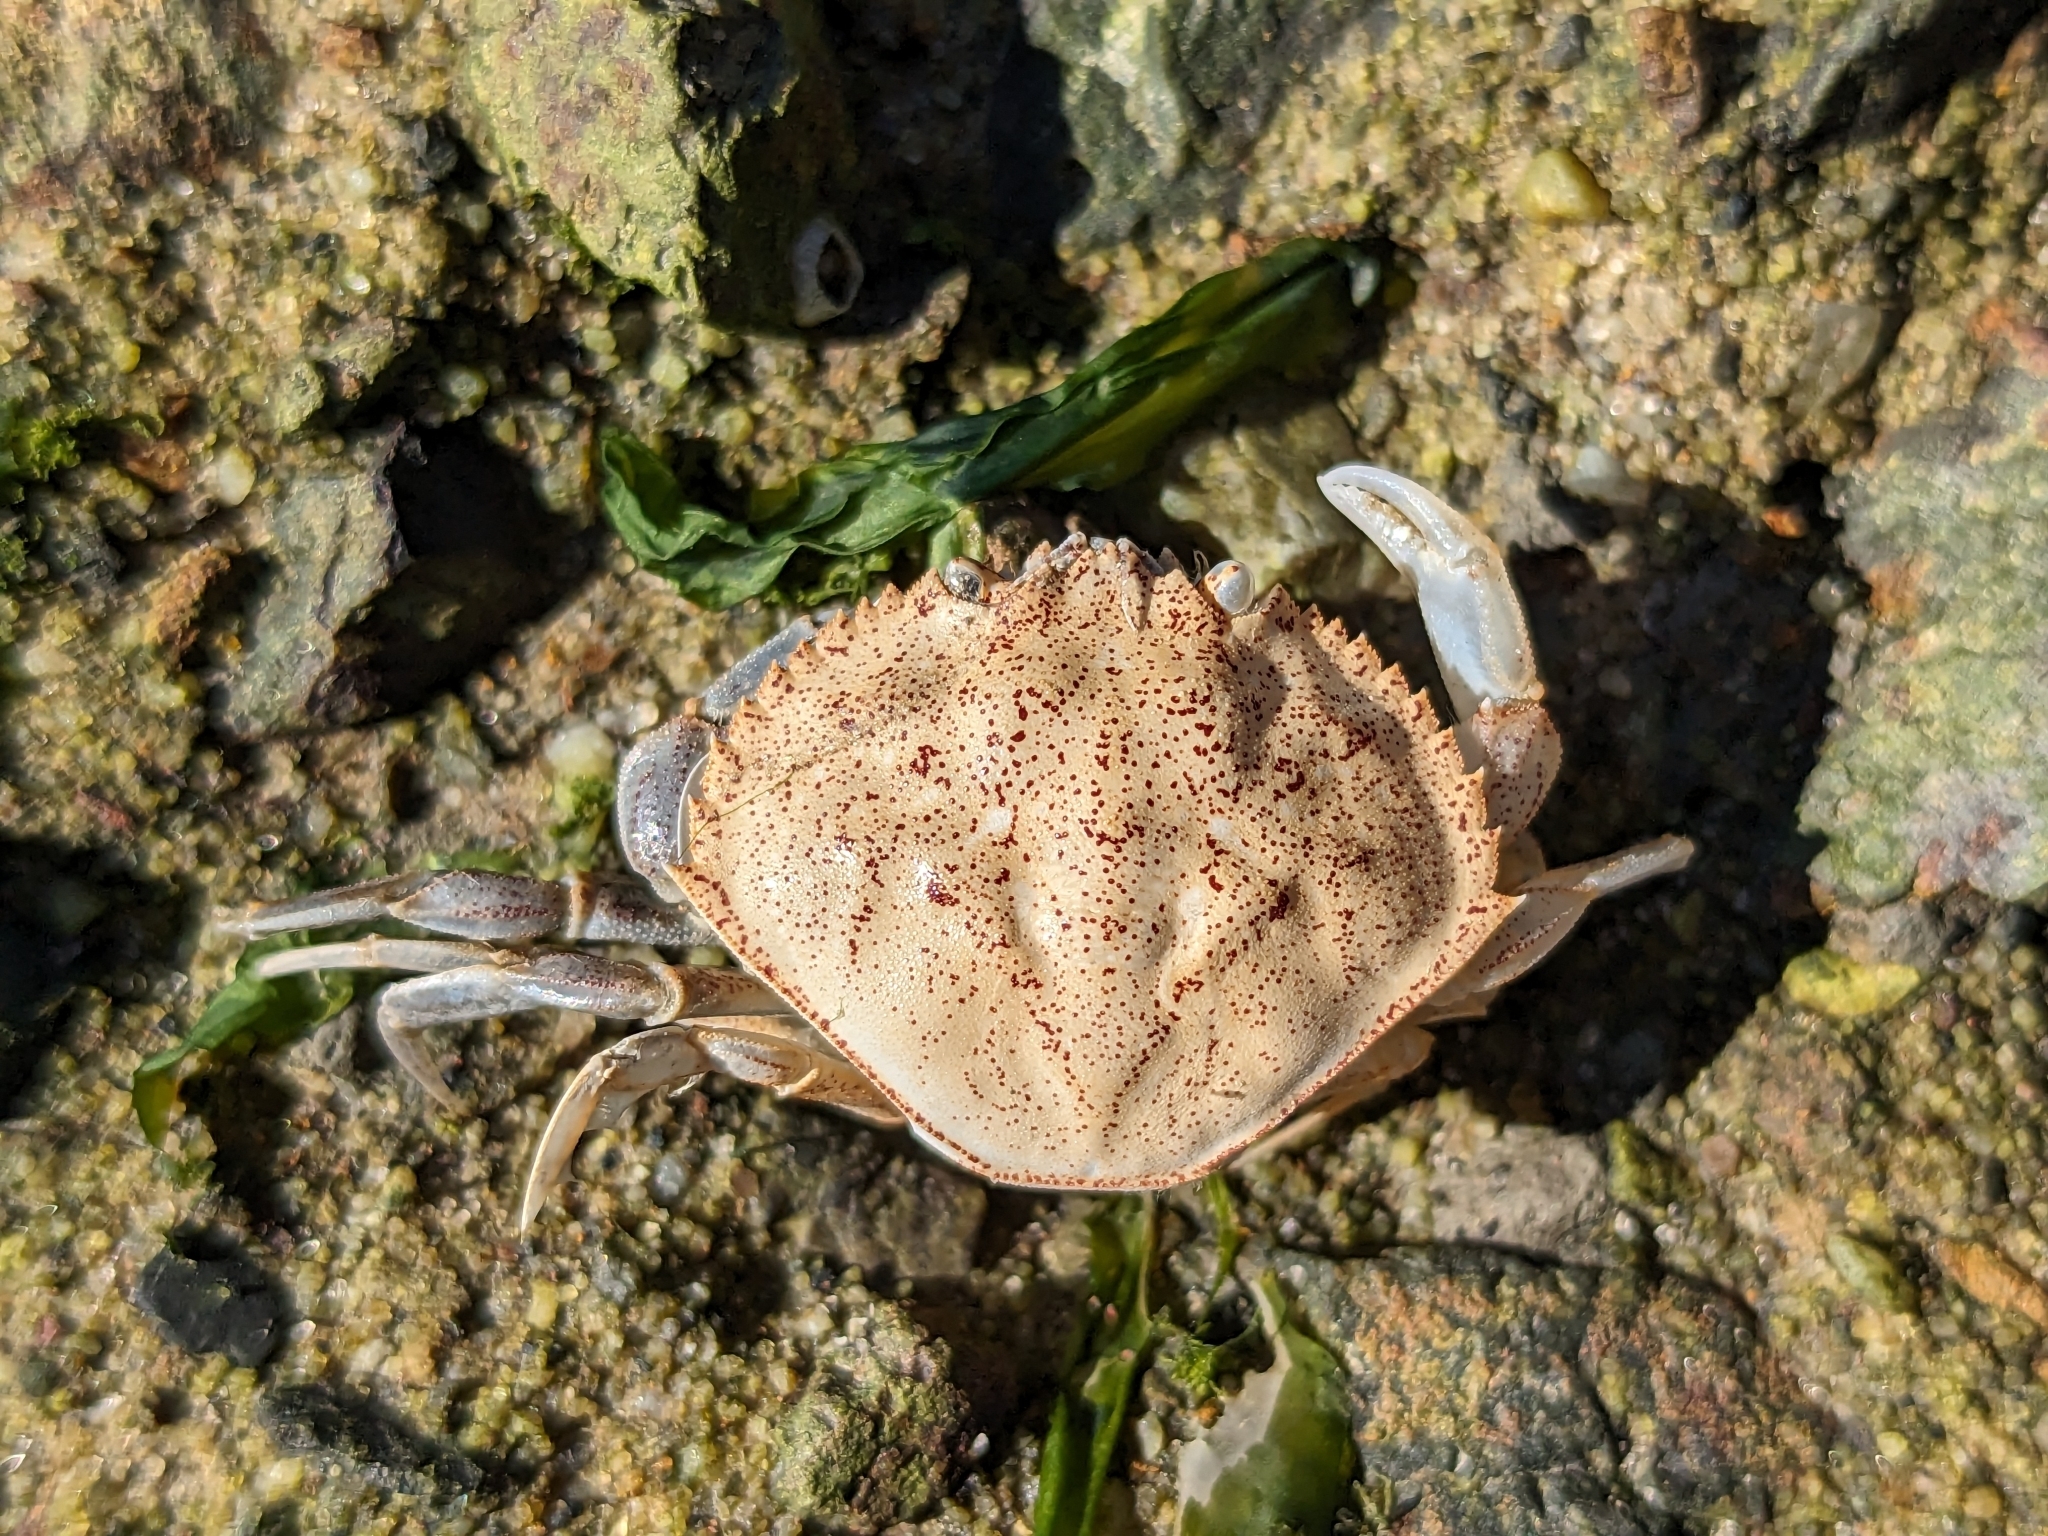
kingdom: Animalia
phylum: Arthropoda
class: Malacostraca
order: Decapoda
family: Cancridae
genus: Metacarcinus
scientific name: Metacarcinus magister
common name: Californian crab
